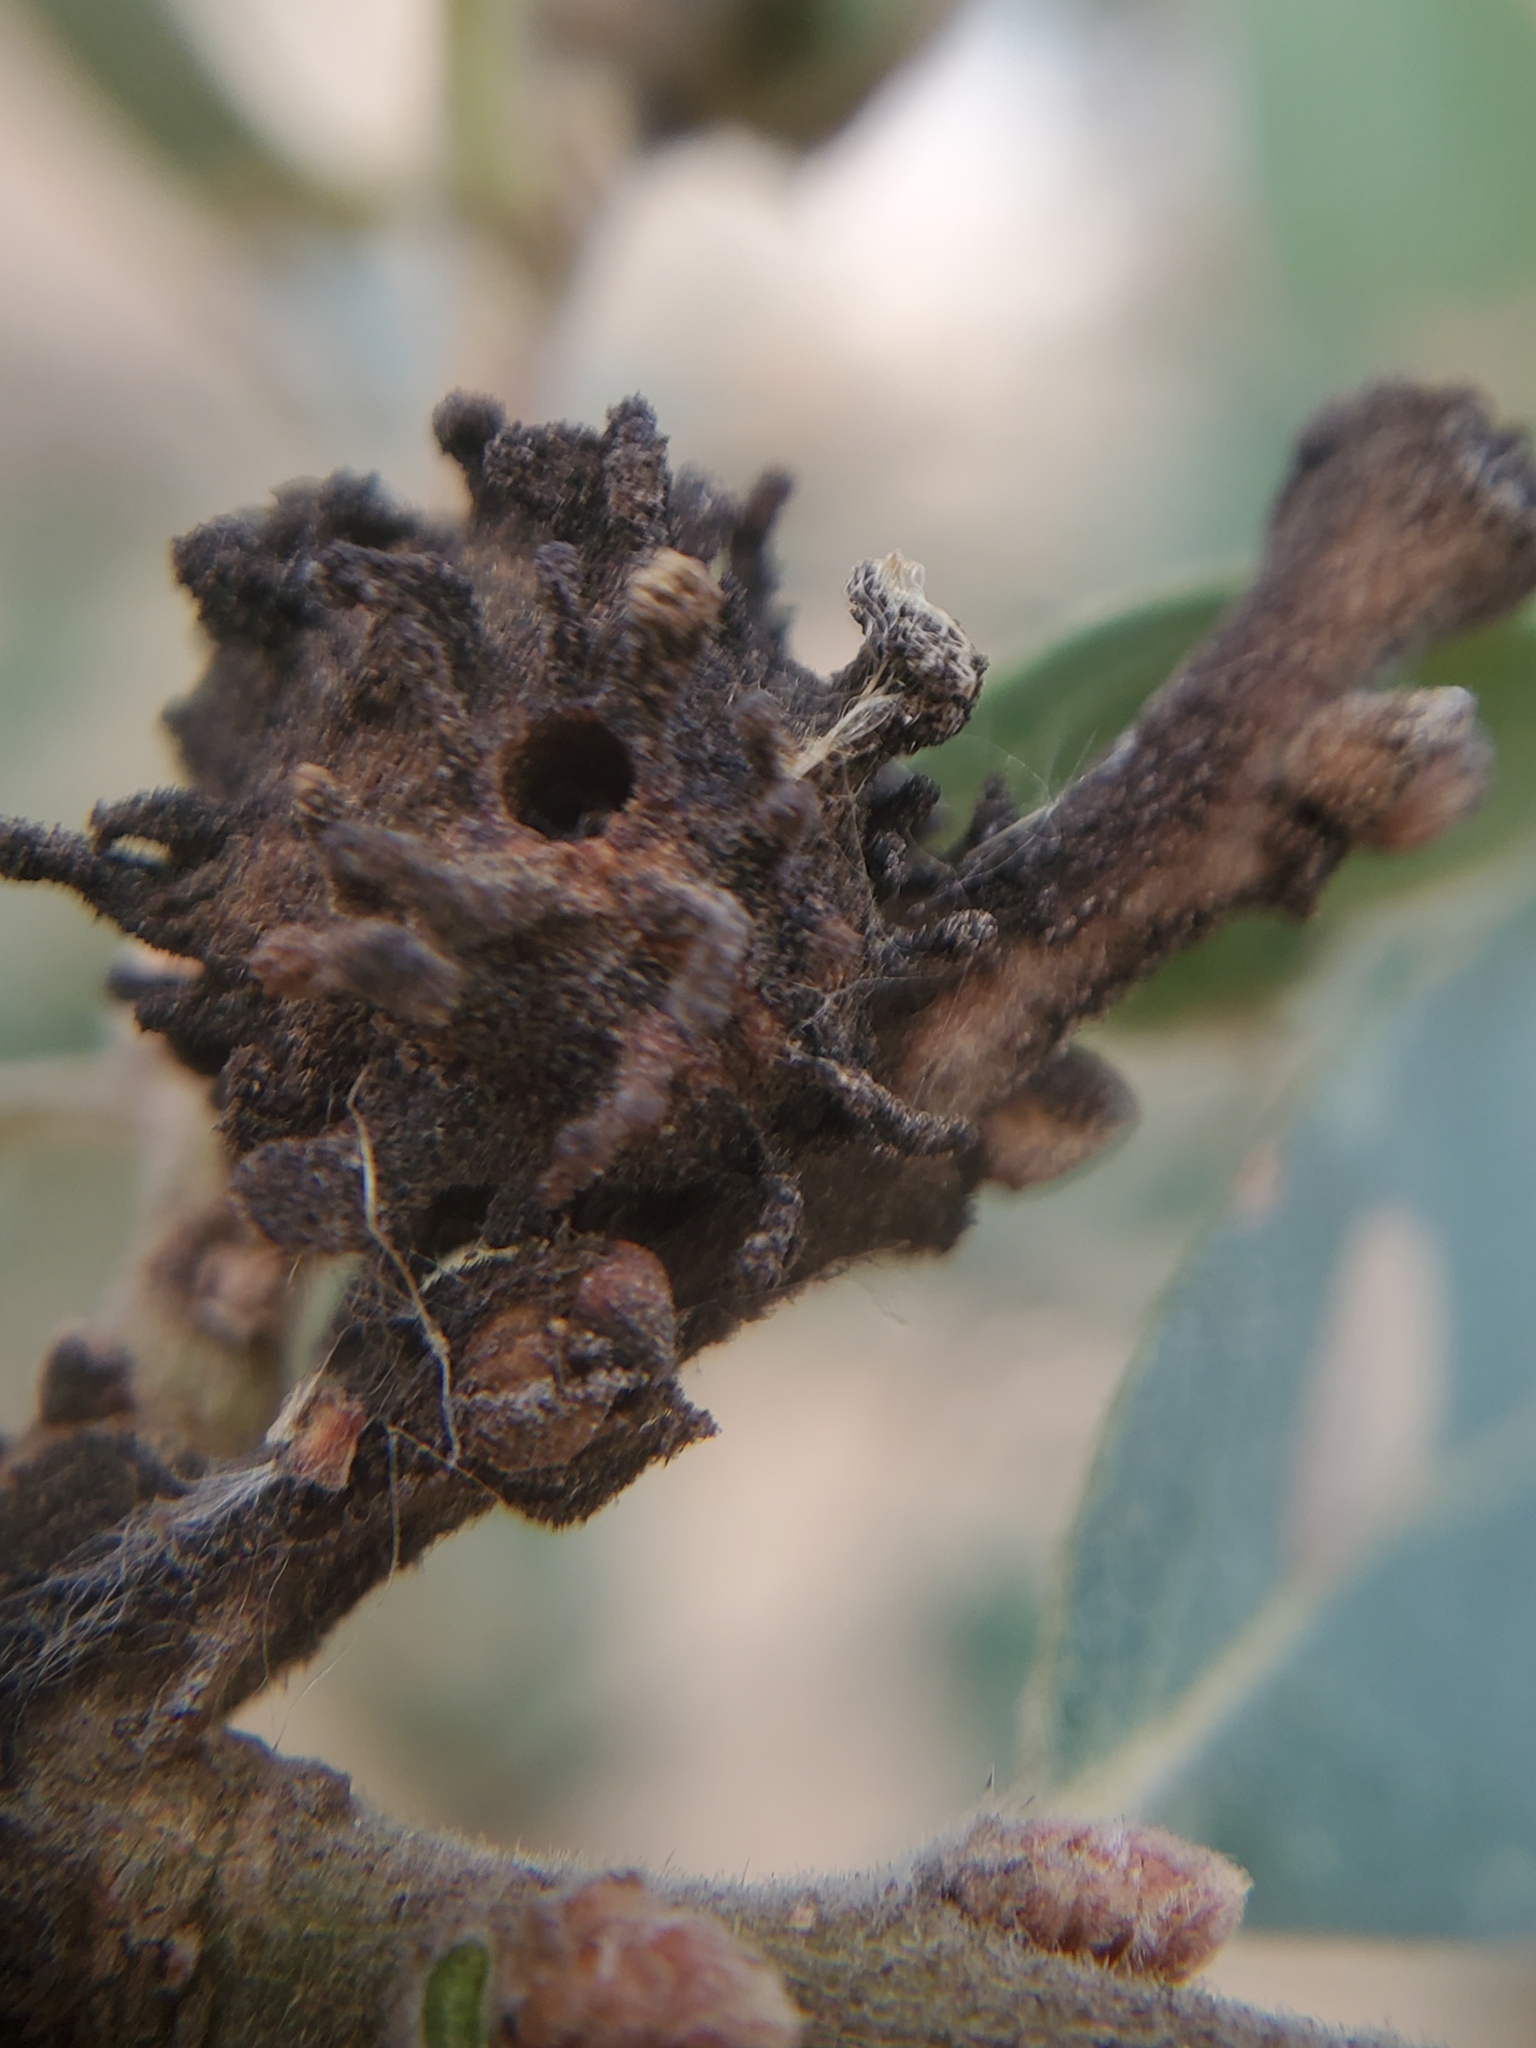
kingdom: Animalia
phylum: Arthropoda
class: Insecta
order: Hymenoptera
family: Cynipidae
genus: Burnettweldia
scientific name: Burnettweldia
